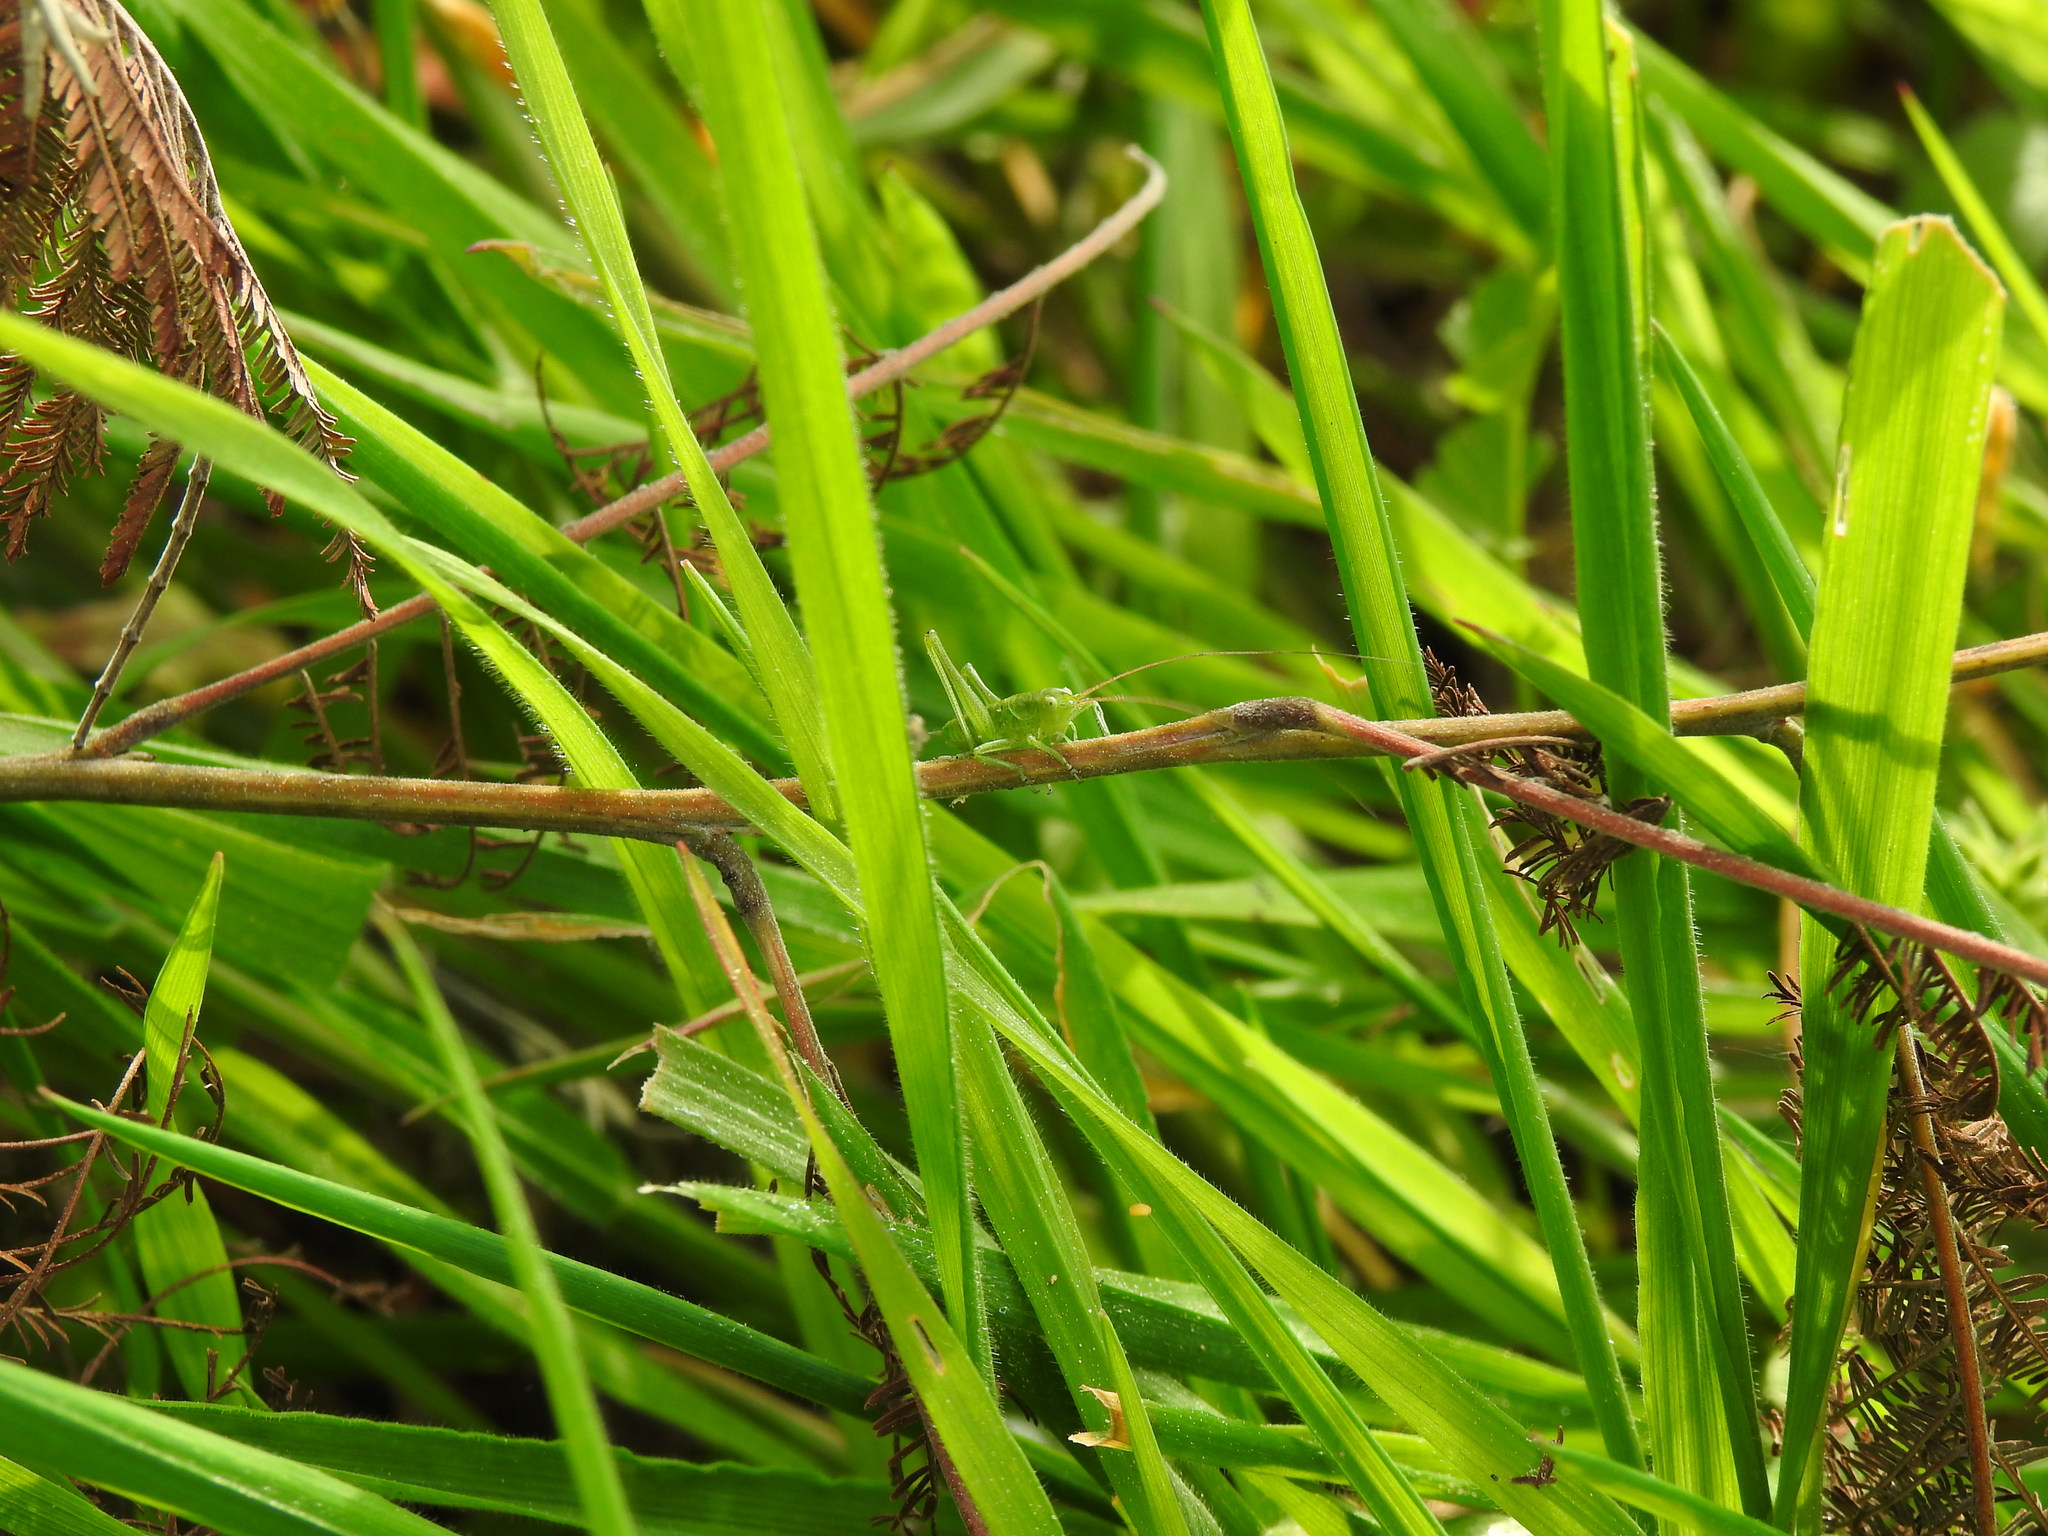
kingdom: Animalia
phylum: Arthropoda
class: Insecta
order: Orthoptera
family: Tettigoniidae
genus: Tettigonia
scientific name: Tettigonia viridissima
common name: Great green bush-cricket
